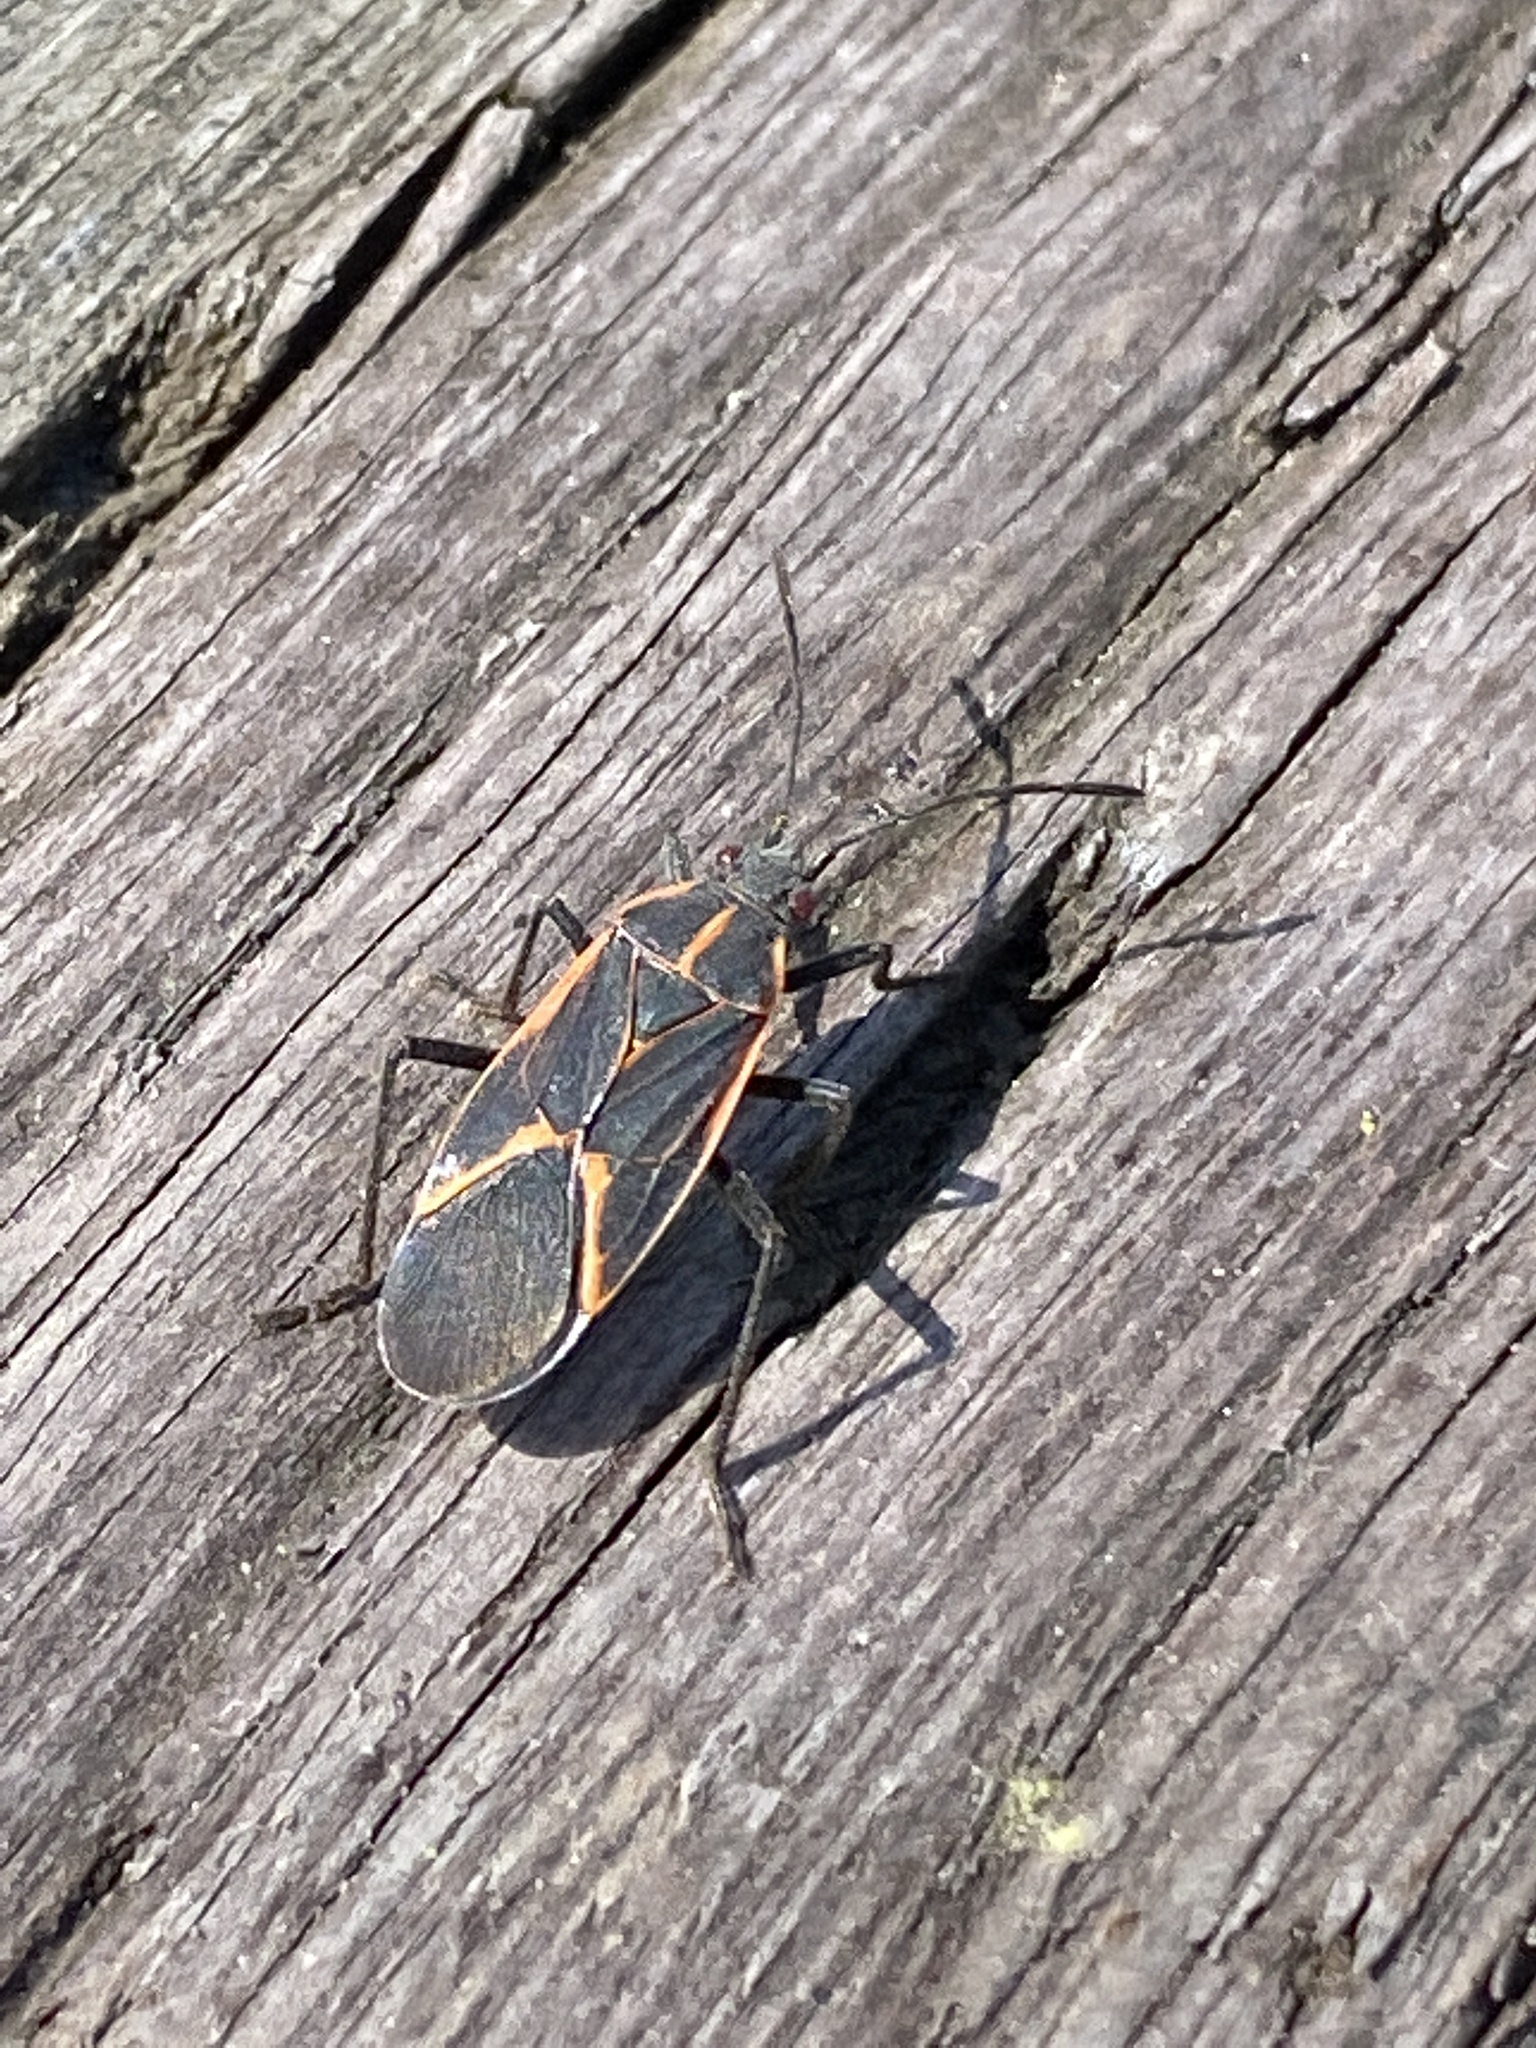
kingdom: Animalia
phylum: Arthropoda
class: Insecta
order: Hemiptera
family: Rhopalidae
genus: Boisea
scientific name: Boisea trivittata
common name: Boxelder bug
